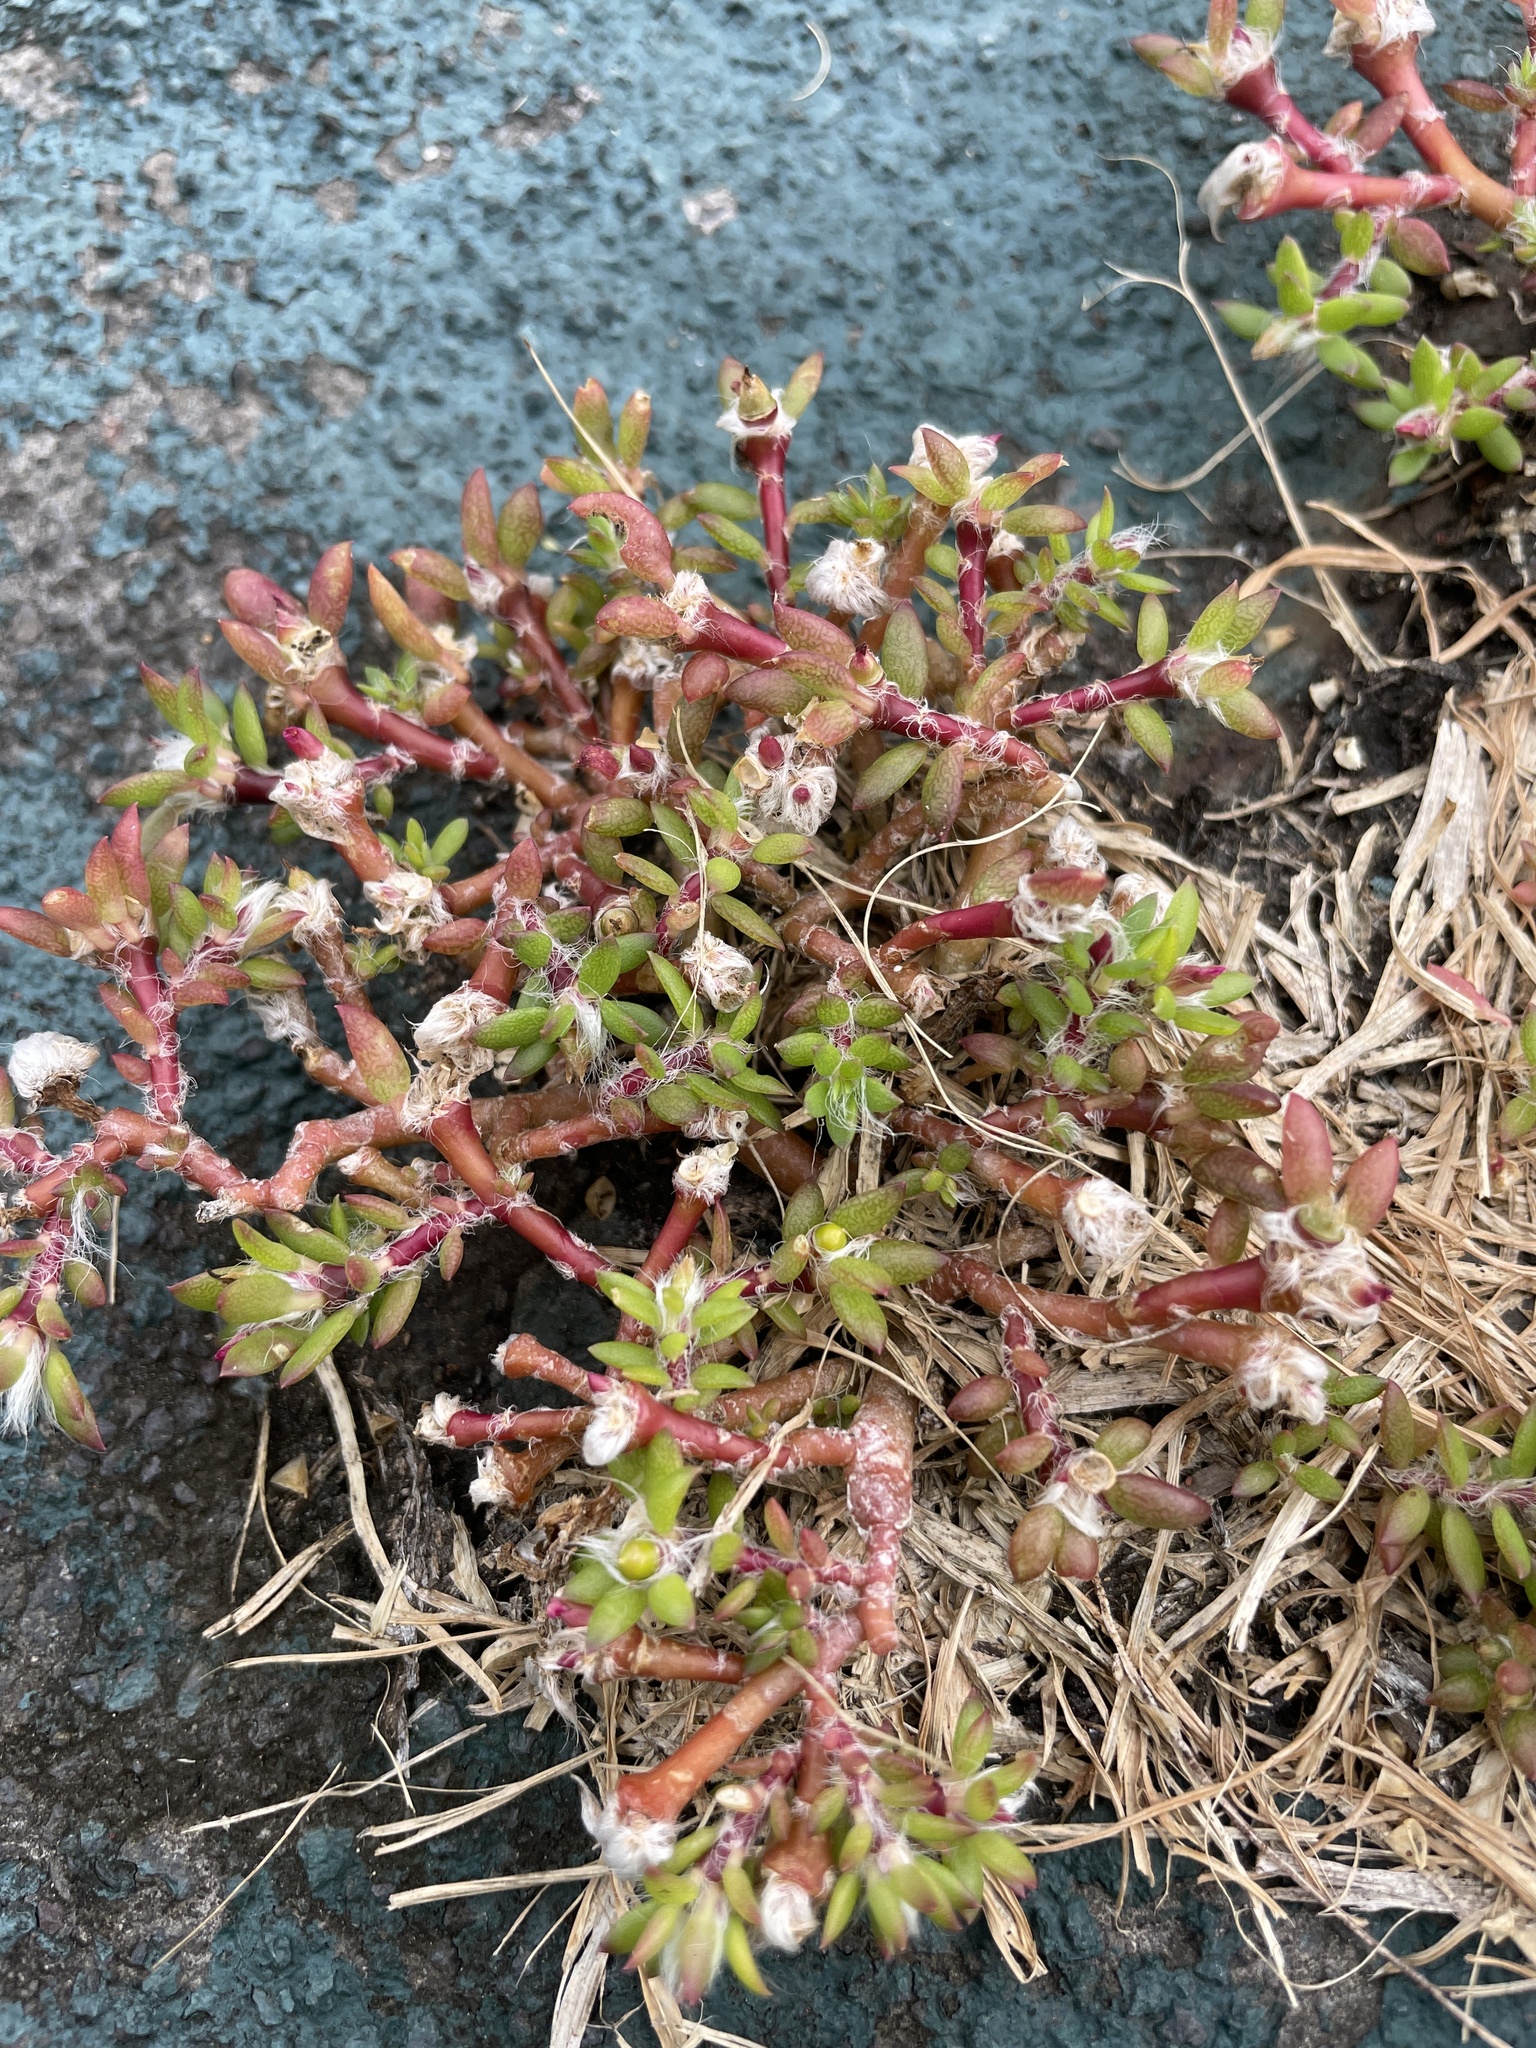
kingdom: Plantae
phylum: Tracheophyta
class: Magnoliopsida
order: Caryophyllales
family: Portulacaceae
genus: Portulaca
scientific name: Portulaca pilosa
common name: Kiss me quick
